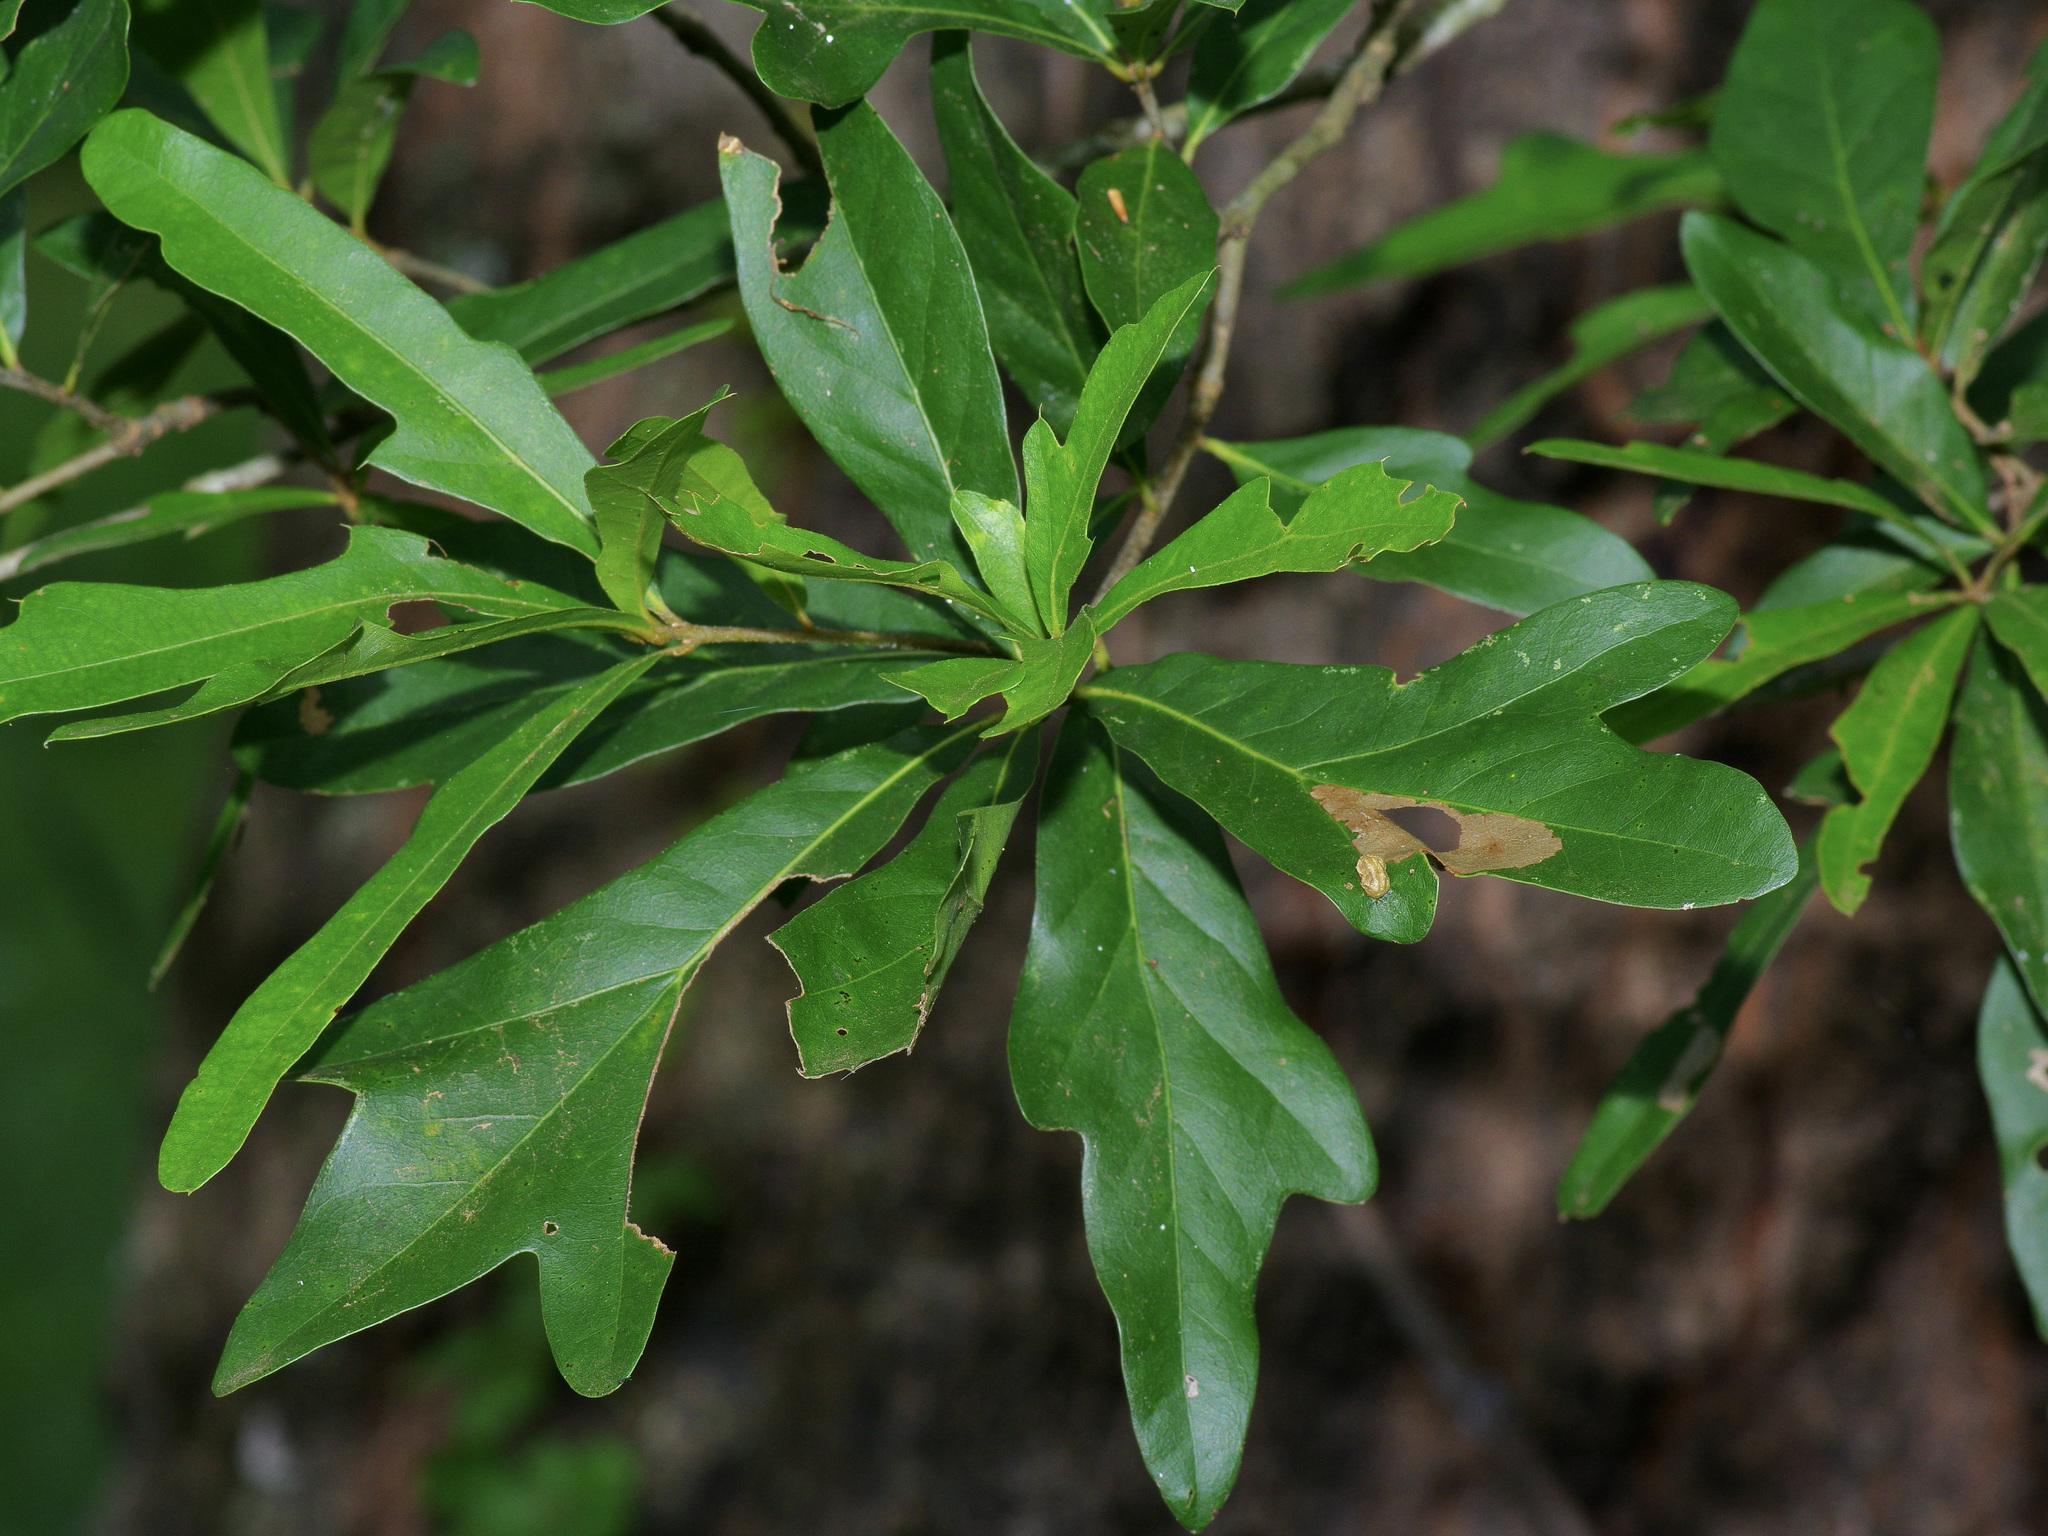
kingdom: Plantae
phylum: Tracheophyta
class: Magnoliopsida
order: Fagales
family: Fagaceae
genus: Quercus
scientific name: Quercus nigra
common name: Water oak
